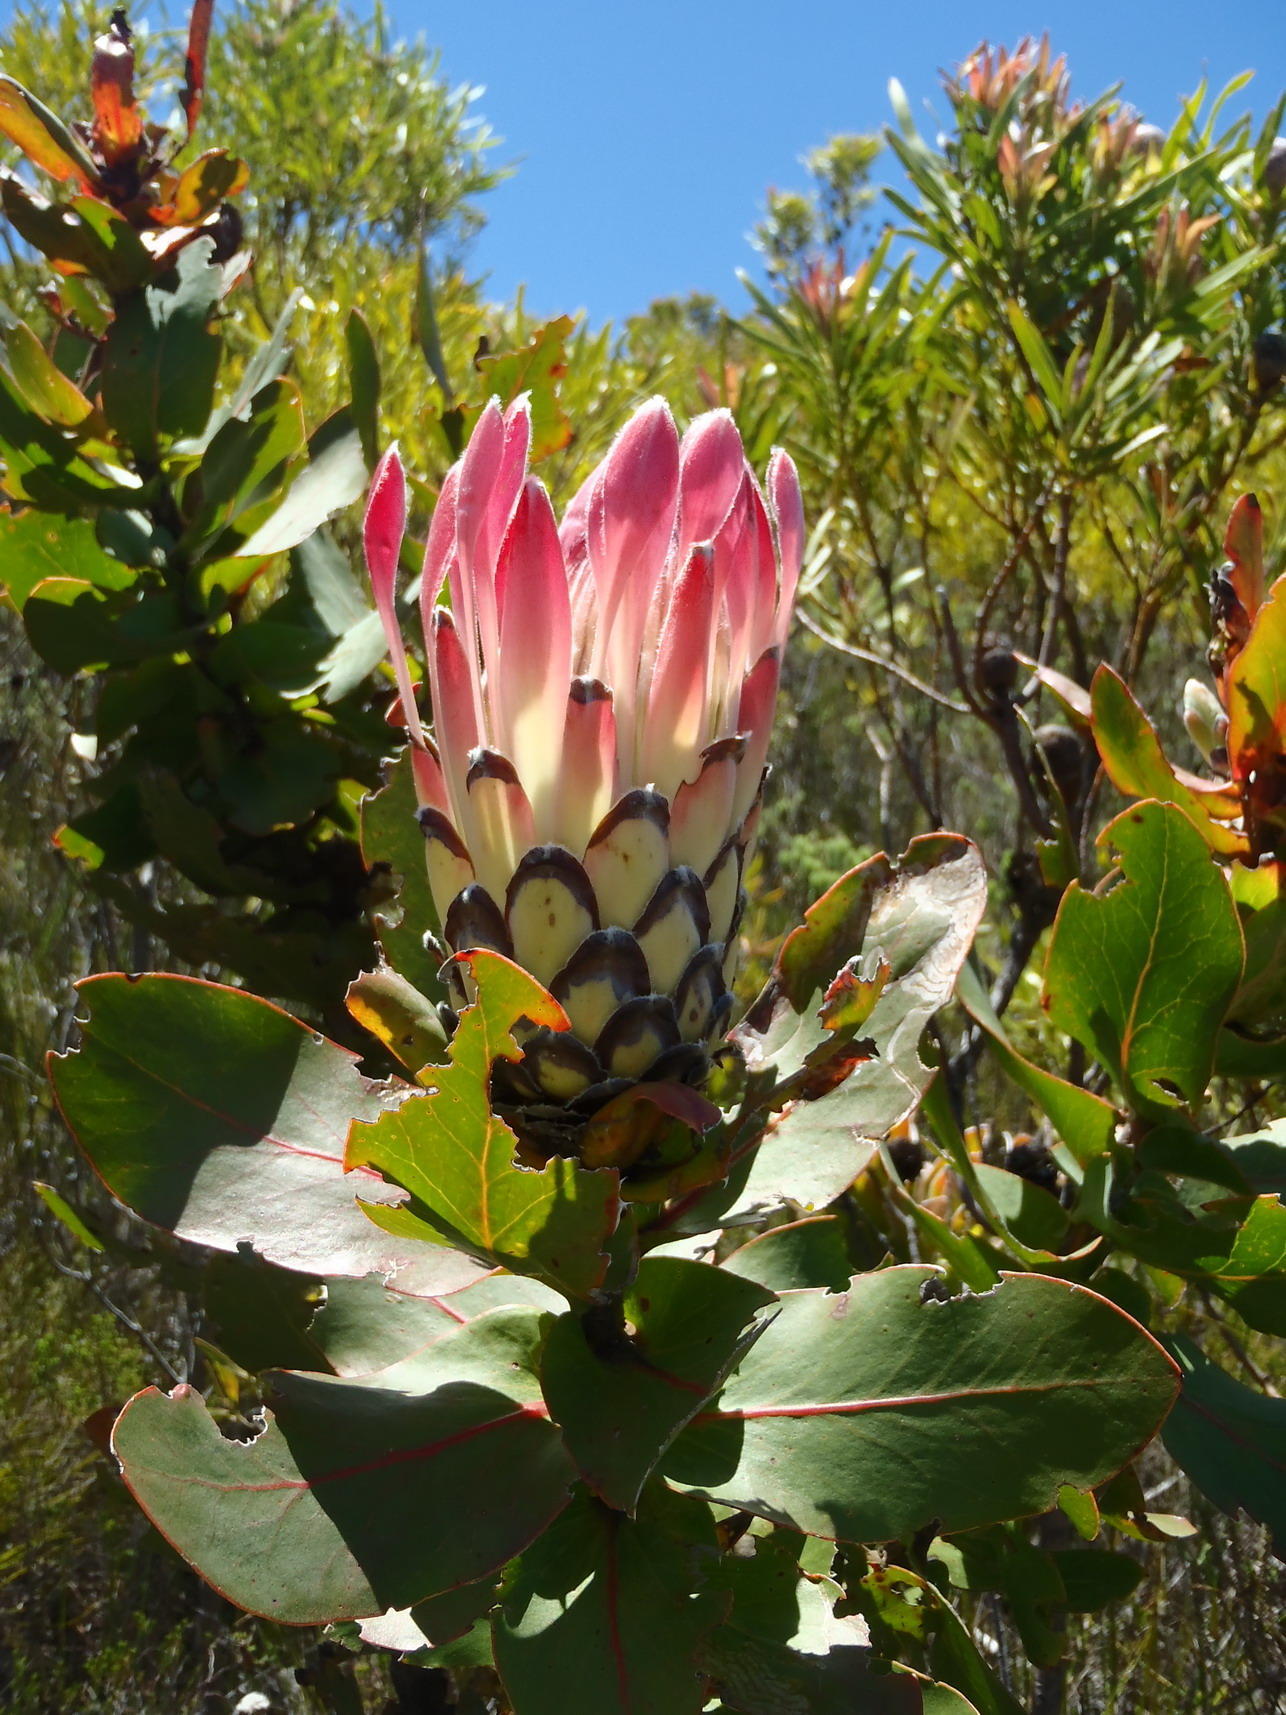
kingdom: Plantae
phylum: Tracheophyta
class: Magnoliopsida
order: Proteales
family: Proteaceae
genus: Protea
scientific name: Protea eximia
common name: Broad-leaved sugarbush
